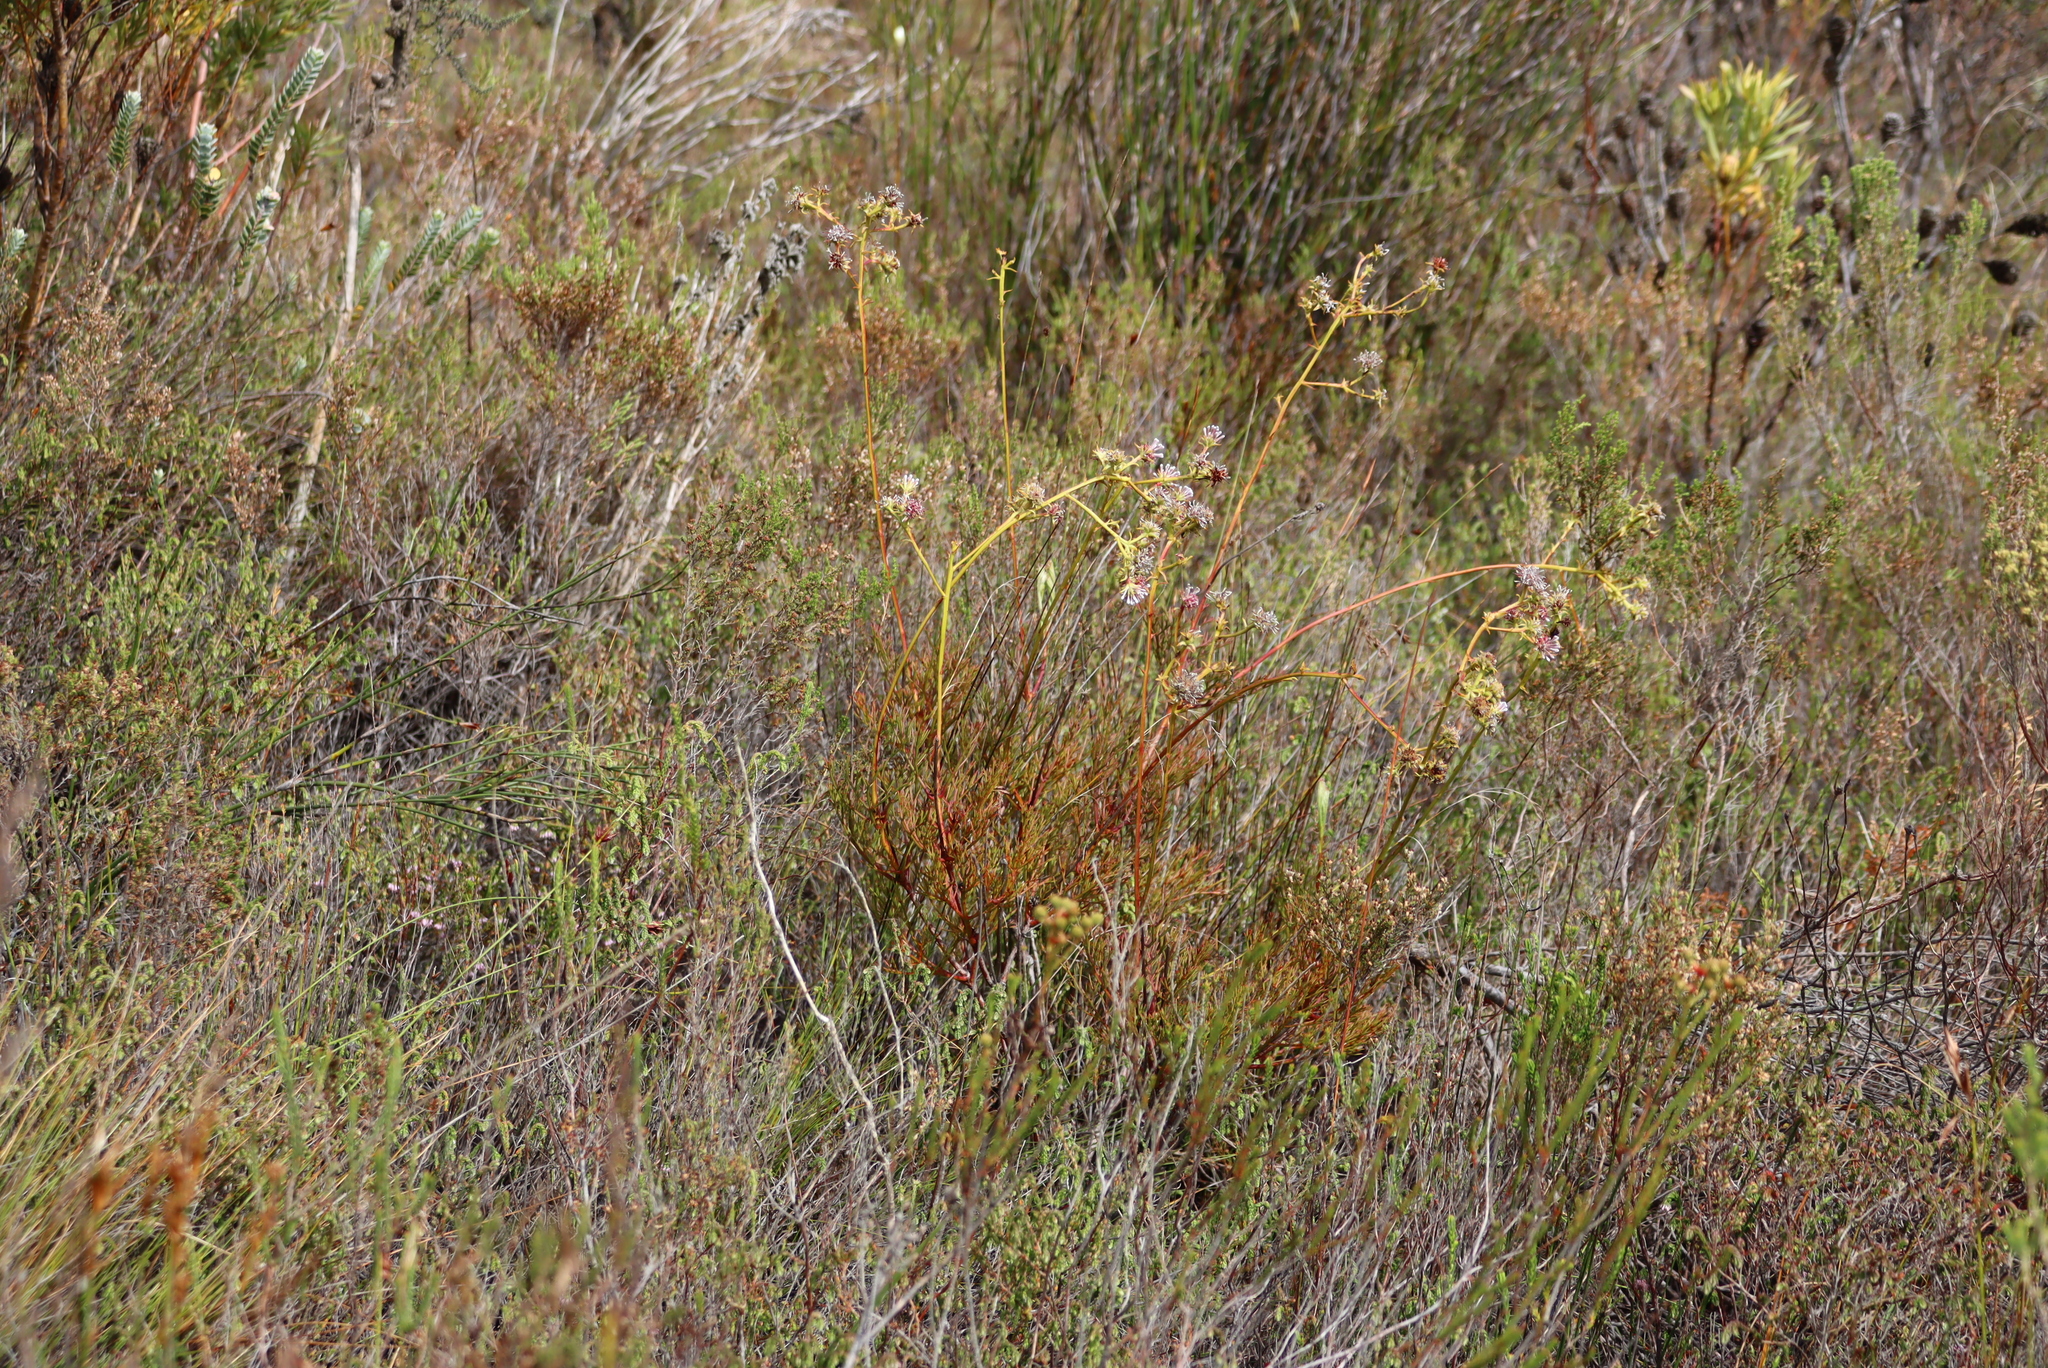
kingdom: Plantae
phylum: Tracheophyta
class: Magnoliopsida
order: Proteales
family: Proteaceae
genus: Serruria
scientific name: Serruria elongata
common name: Long-stalk spiderhead
